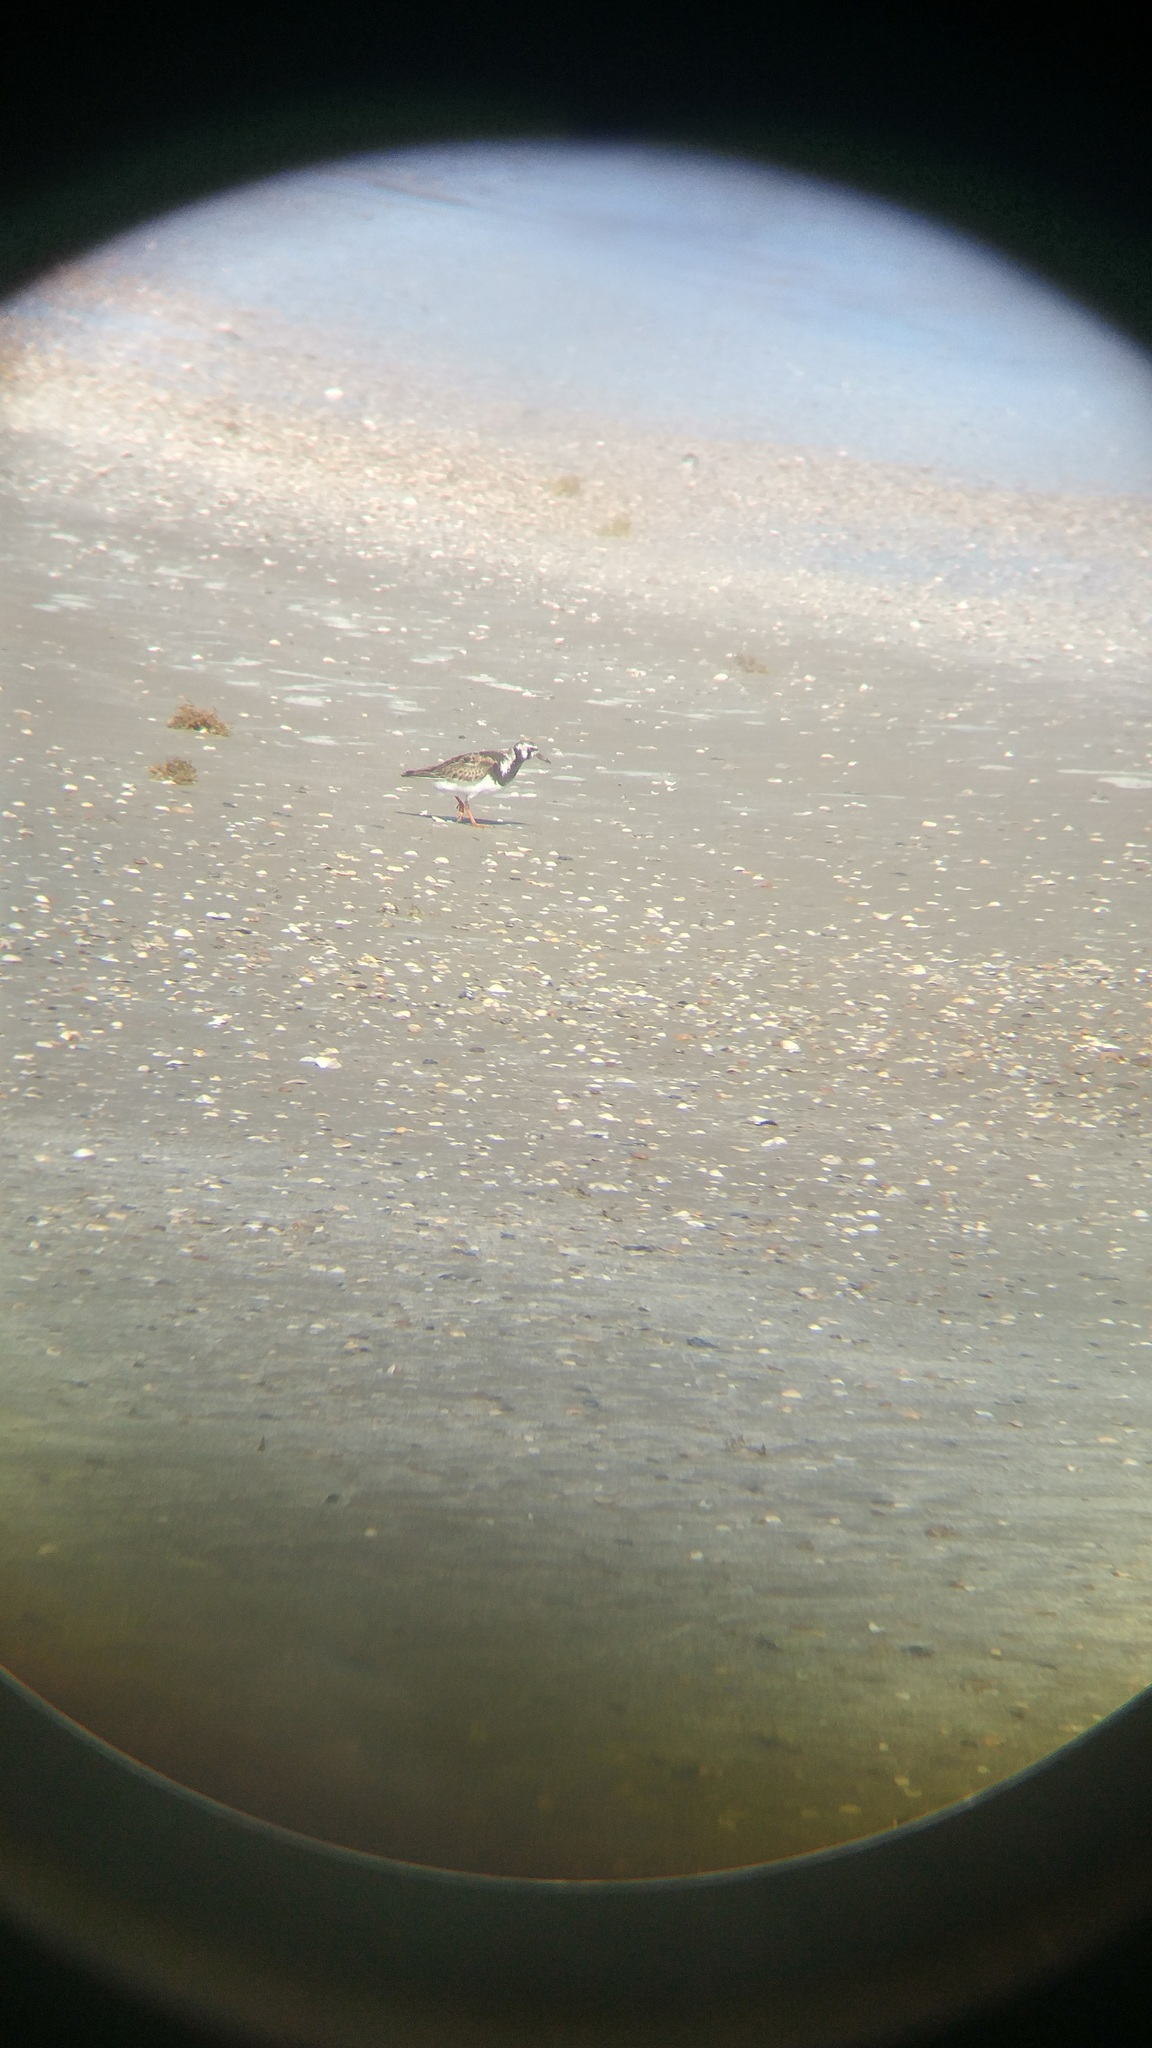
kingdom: Animalia
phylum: Chordata
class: Aves
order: Charadriiformes
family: Scolopacidae
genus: Arenaria
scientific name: Arenaria interpres
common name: Ruddy turnstone
